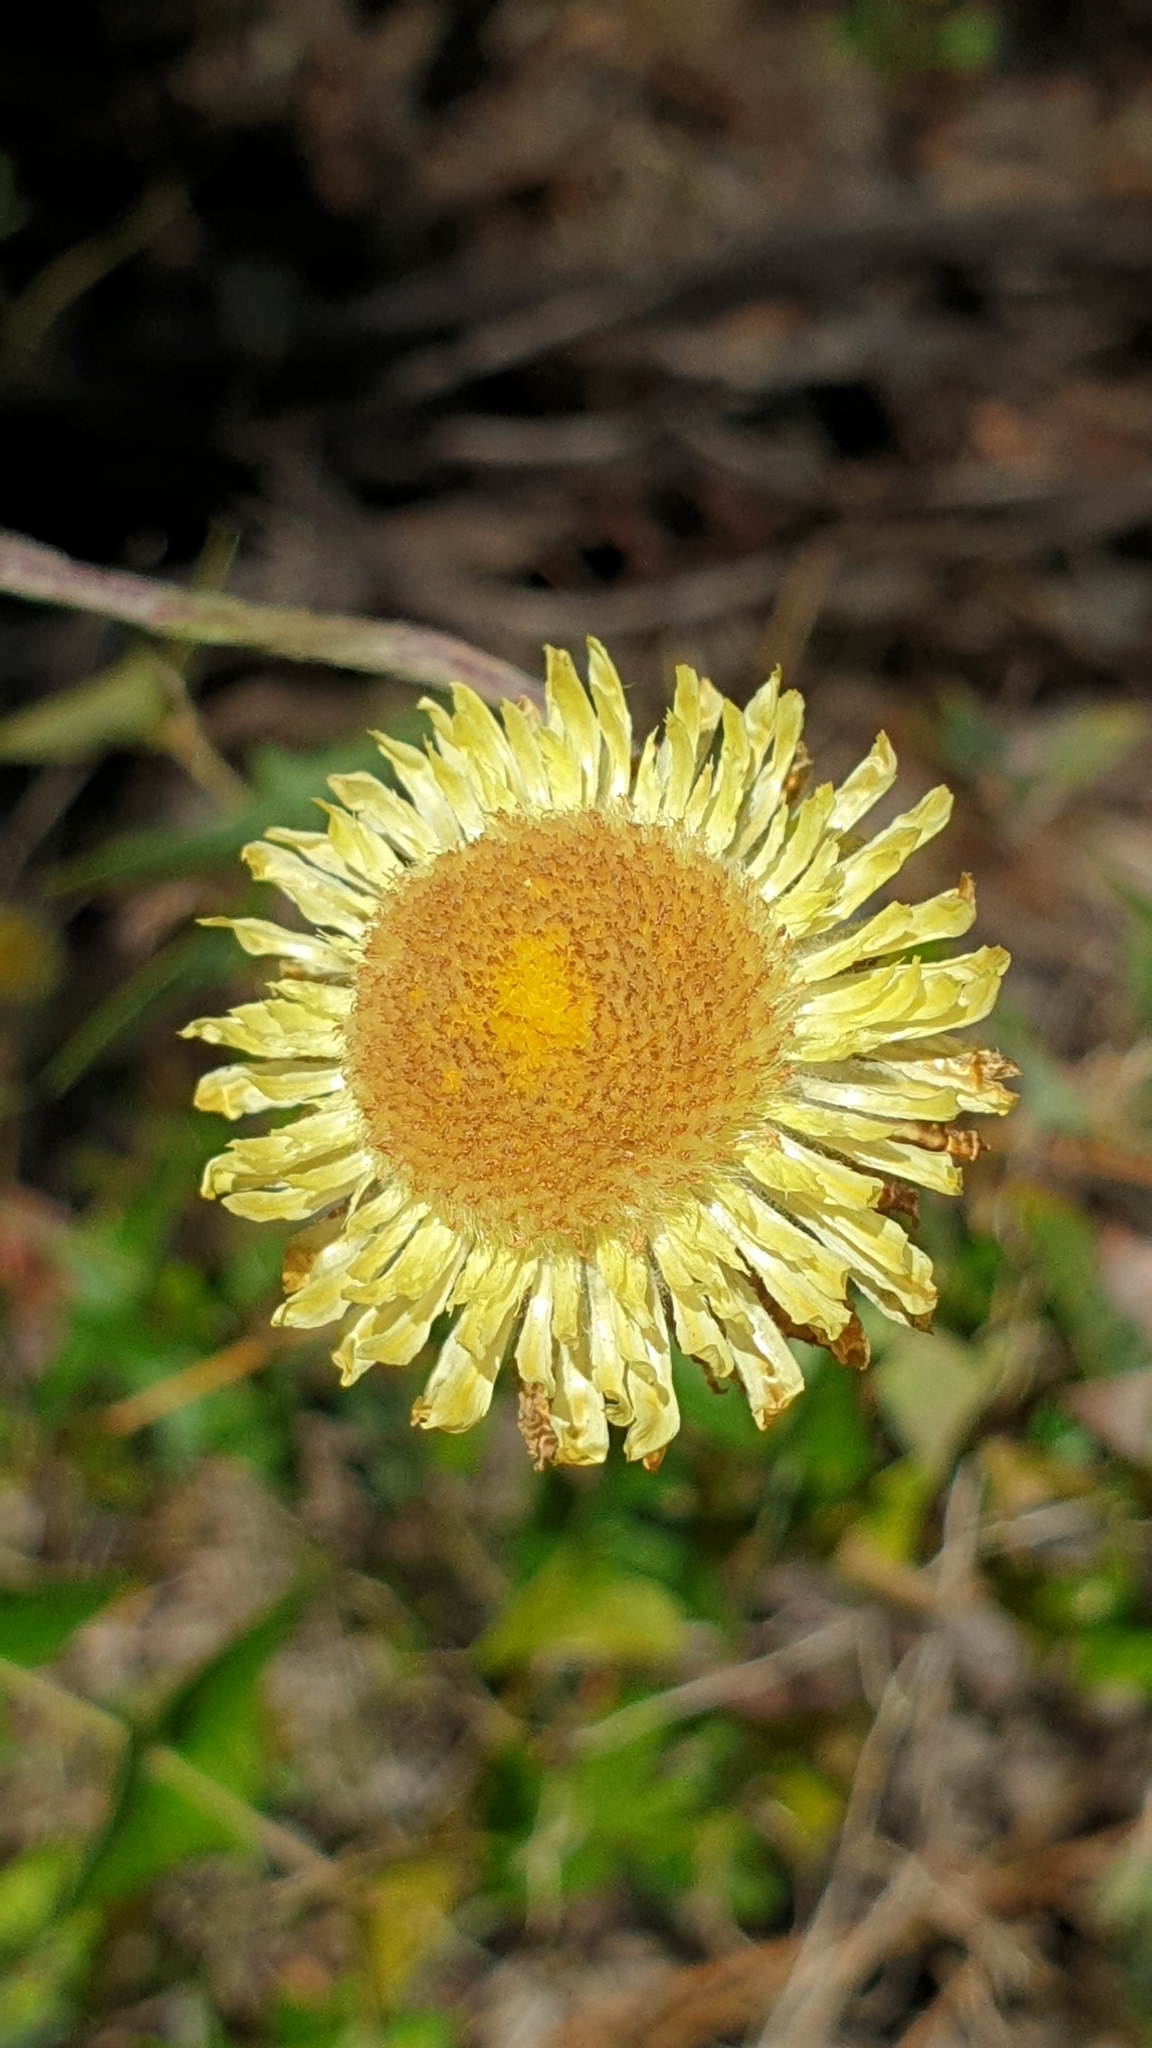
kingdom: Plantae
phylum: Tracheophyta
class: Magnoliopsida
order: Asterales
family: Asteraceae
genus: Coronidium
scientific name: Coronidium scorpioides
